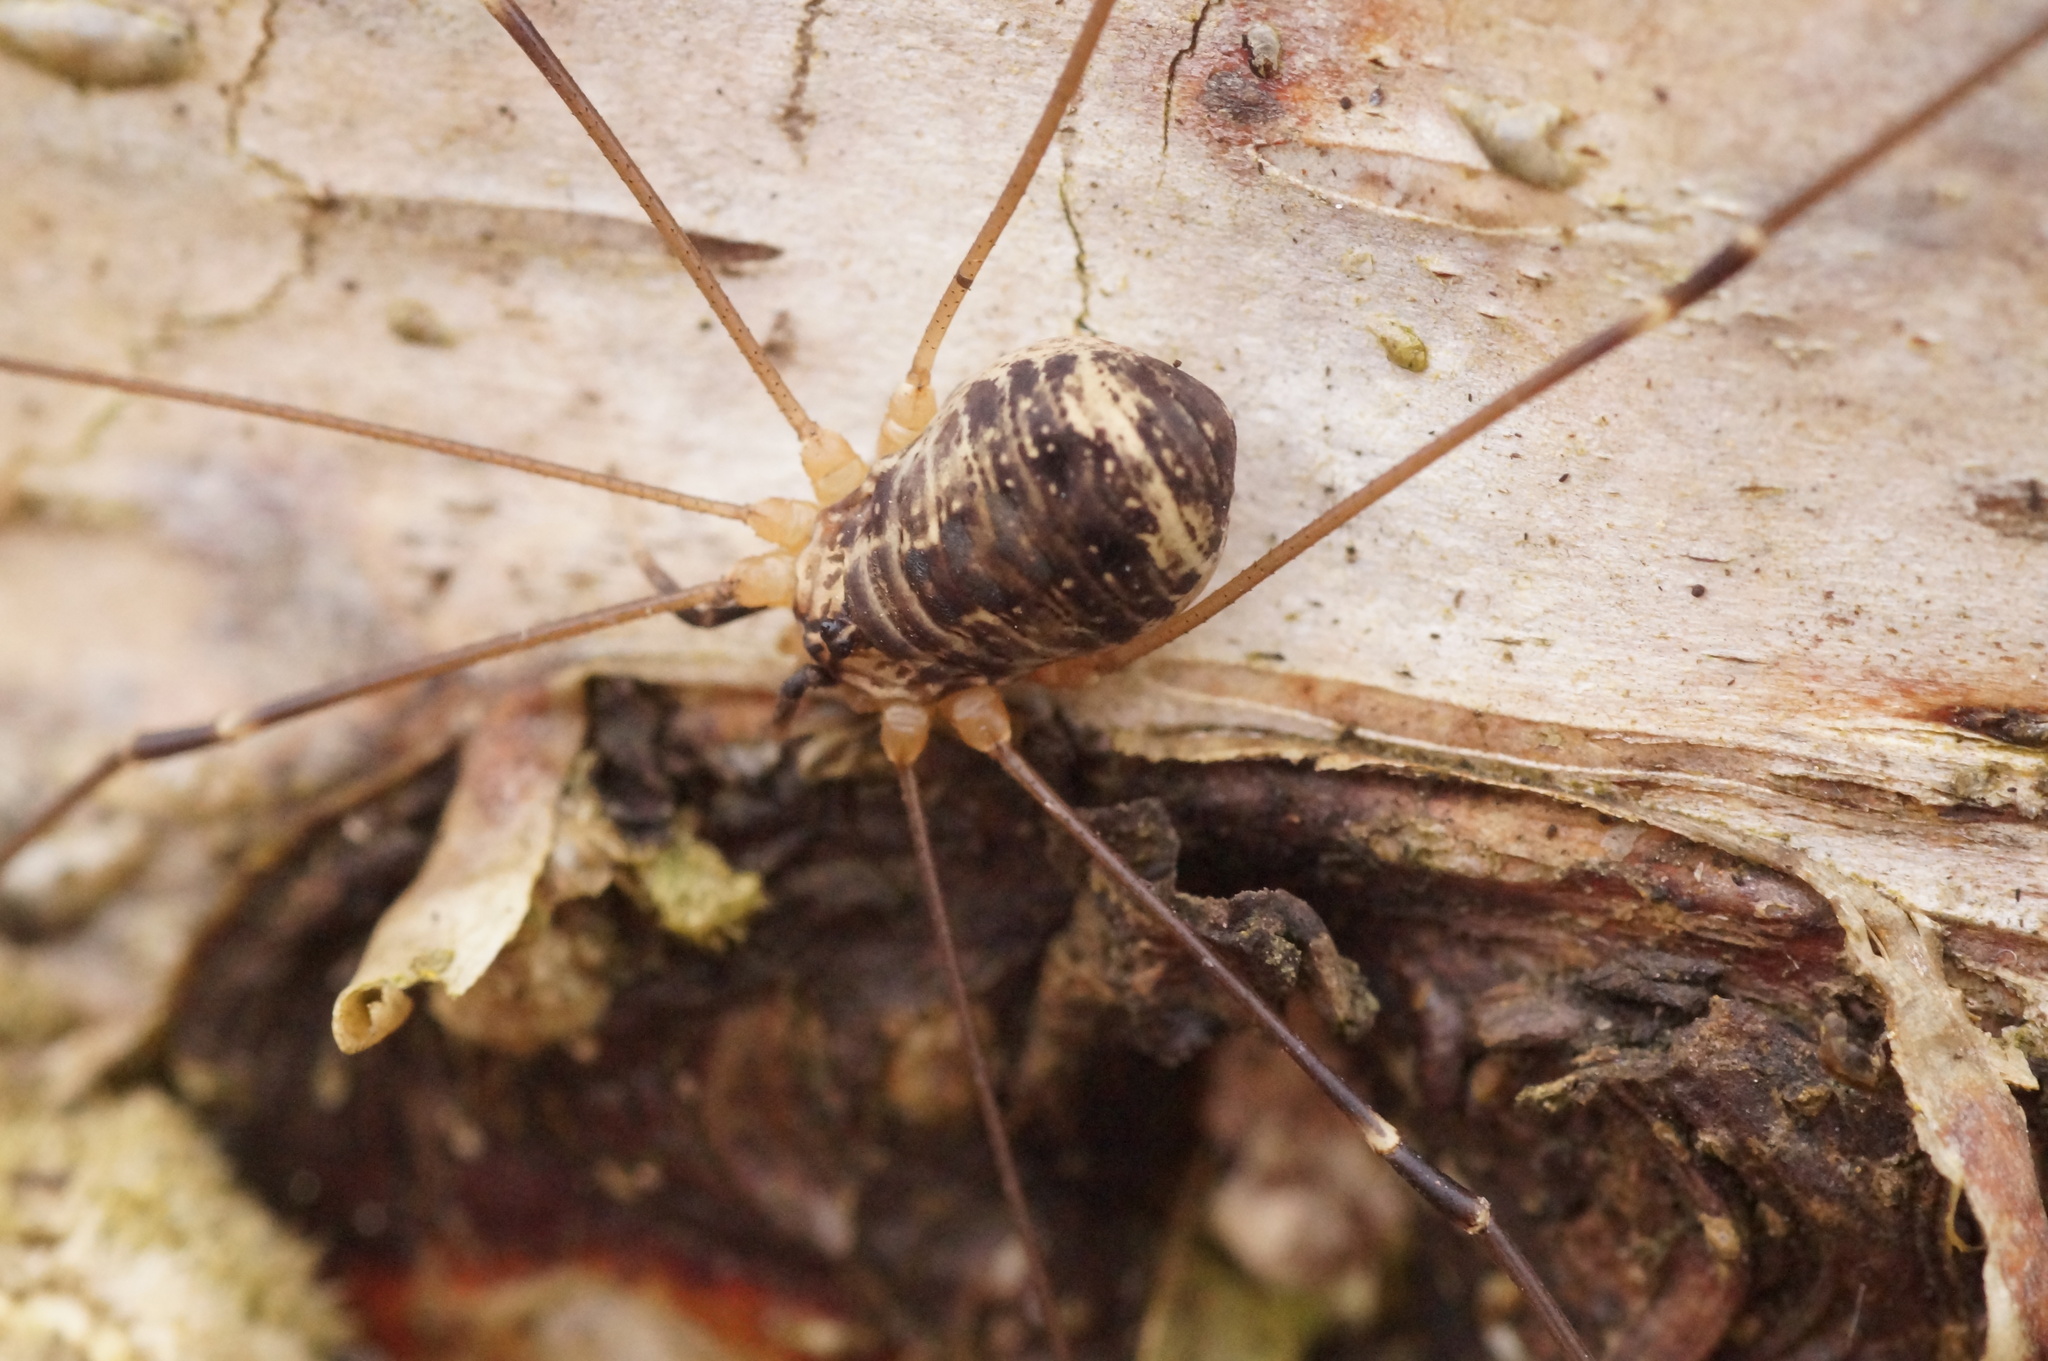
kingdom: Animalia
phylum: Arthropoda
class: Arachnida
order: Opiliones
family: Sclerosomatidae
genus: Leiobunum
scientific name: Leiobunum gracile
